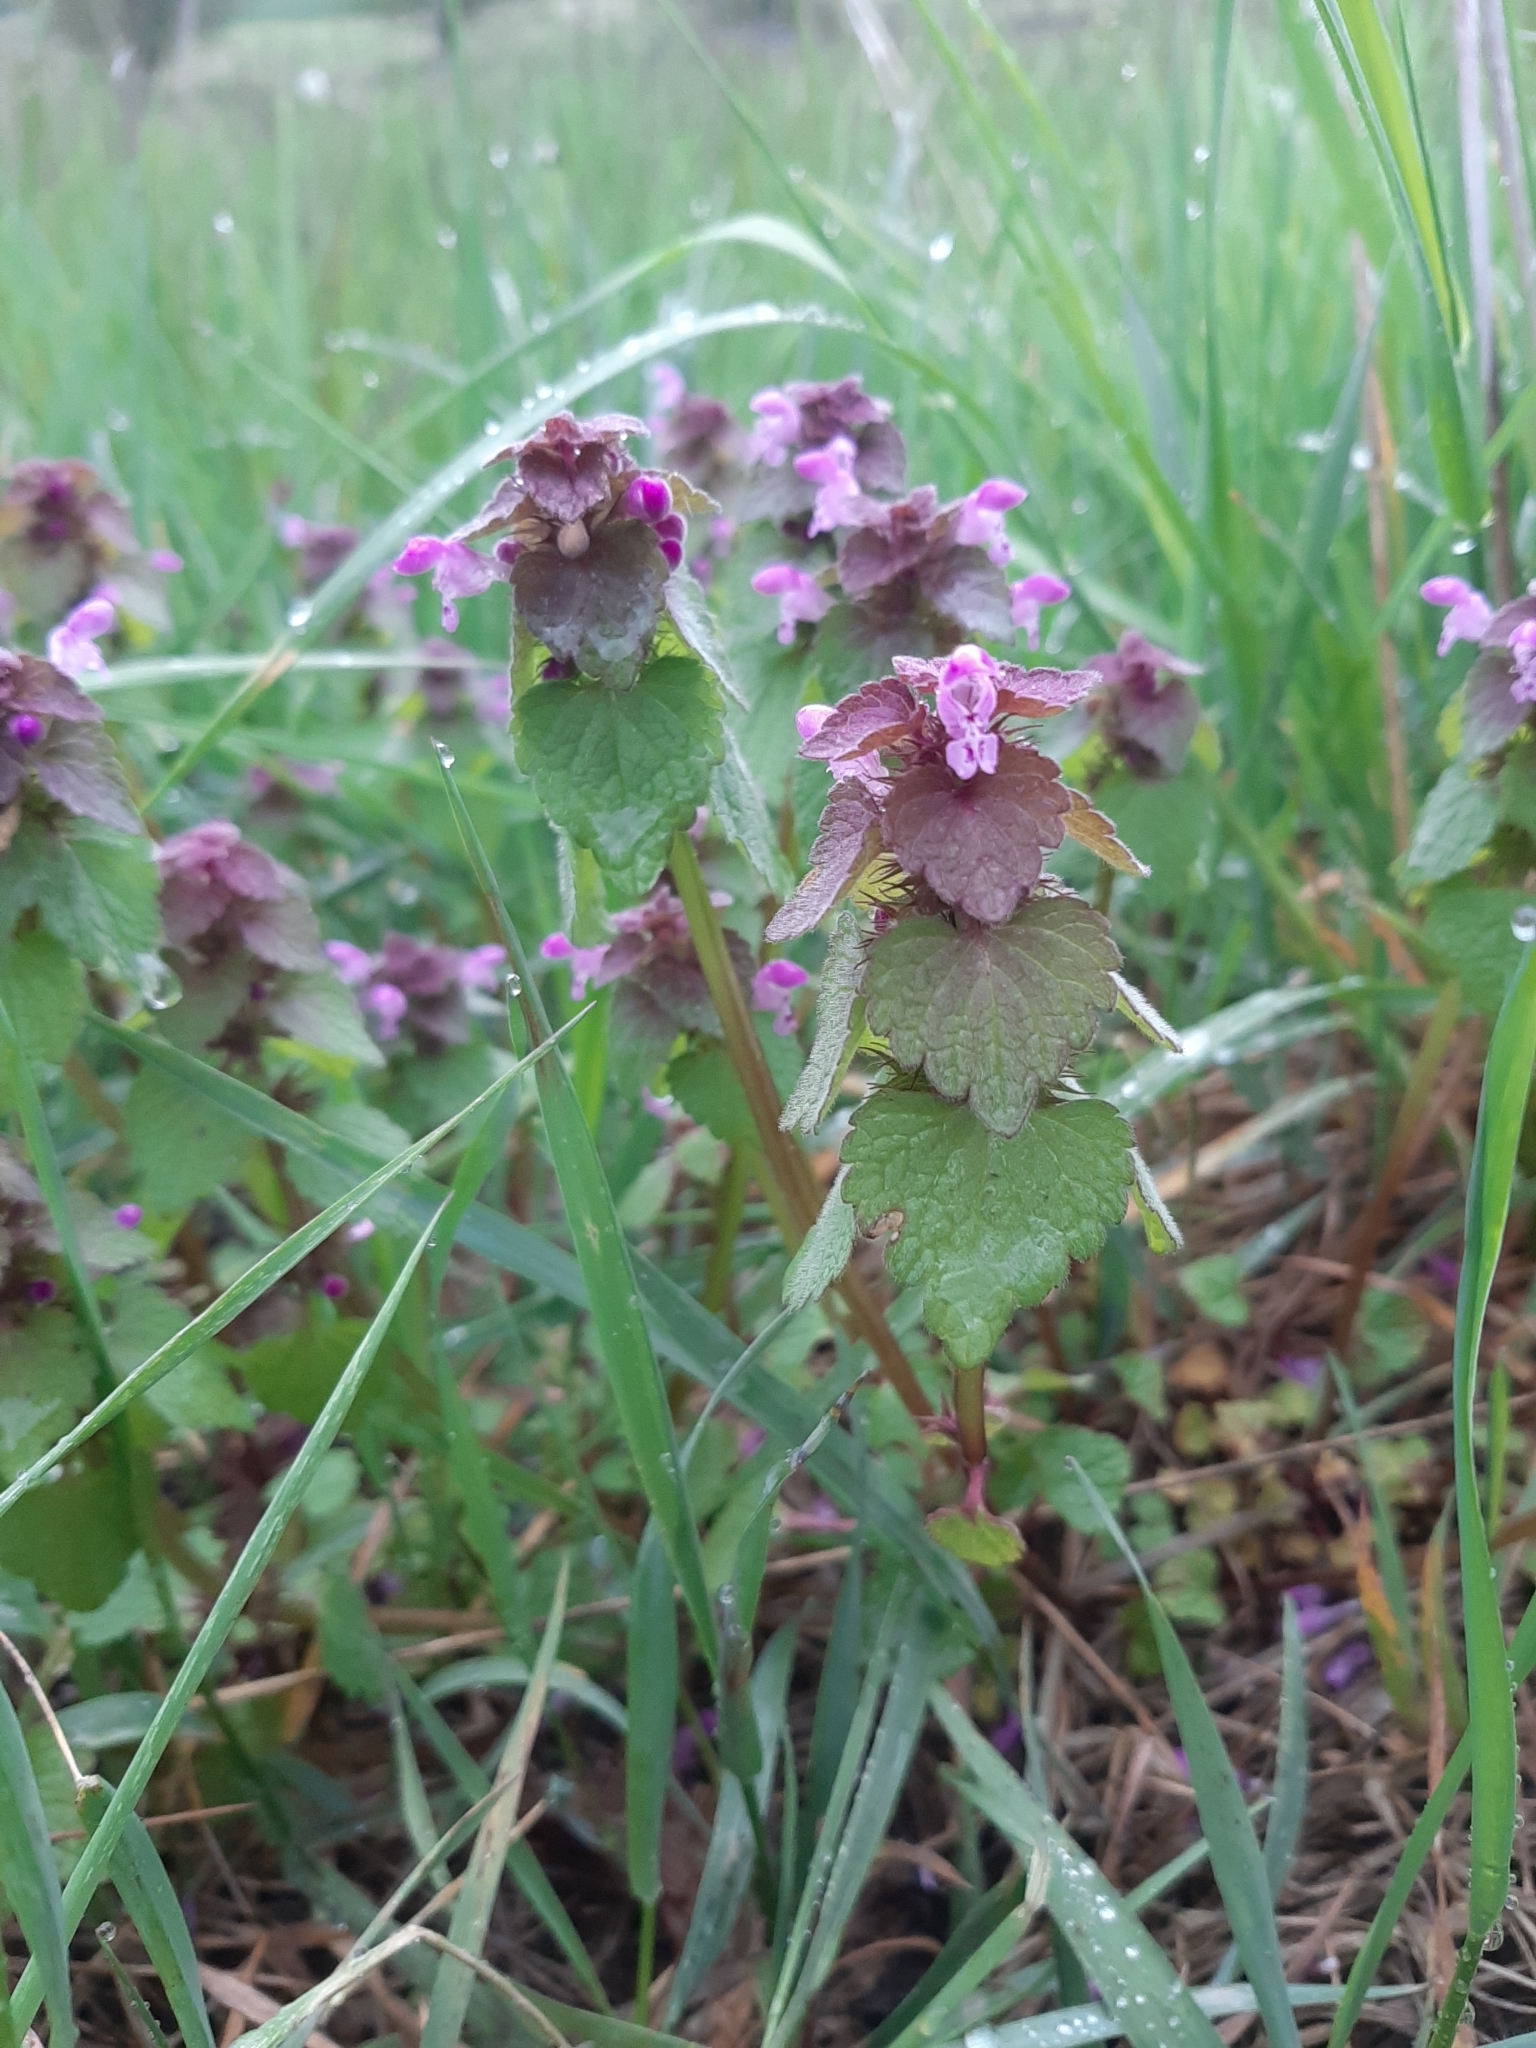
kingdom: Plantae
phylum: Tracheophyta
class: Magnoliopsida
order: Lamiales
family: Lamiaceae
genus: Lamium
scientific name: Lamium purpureum
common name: Red dead-nettle
